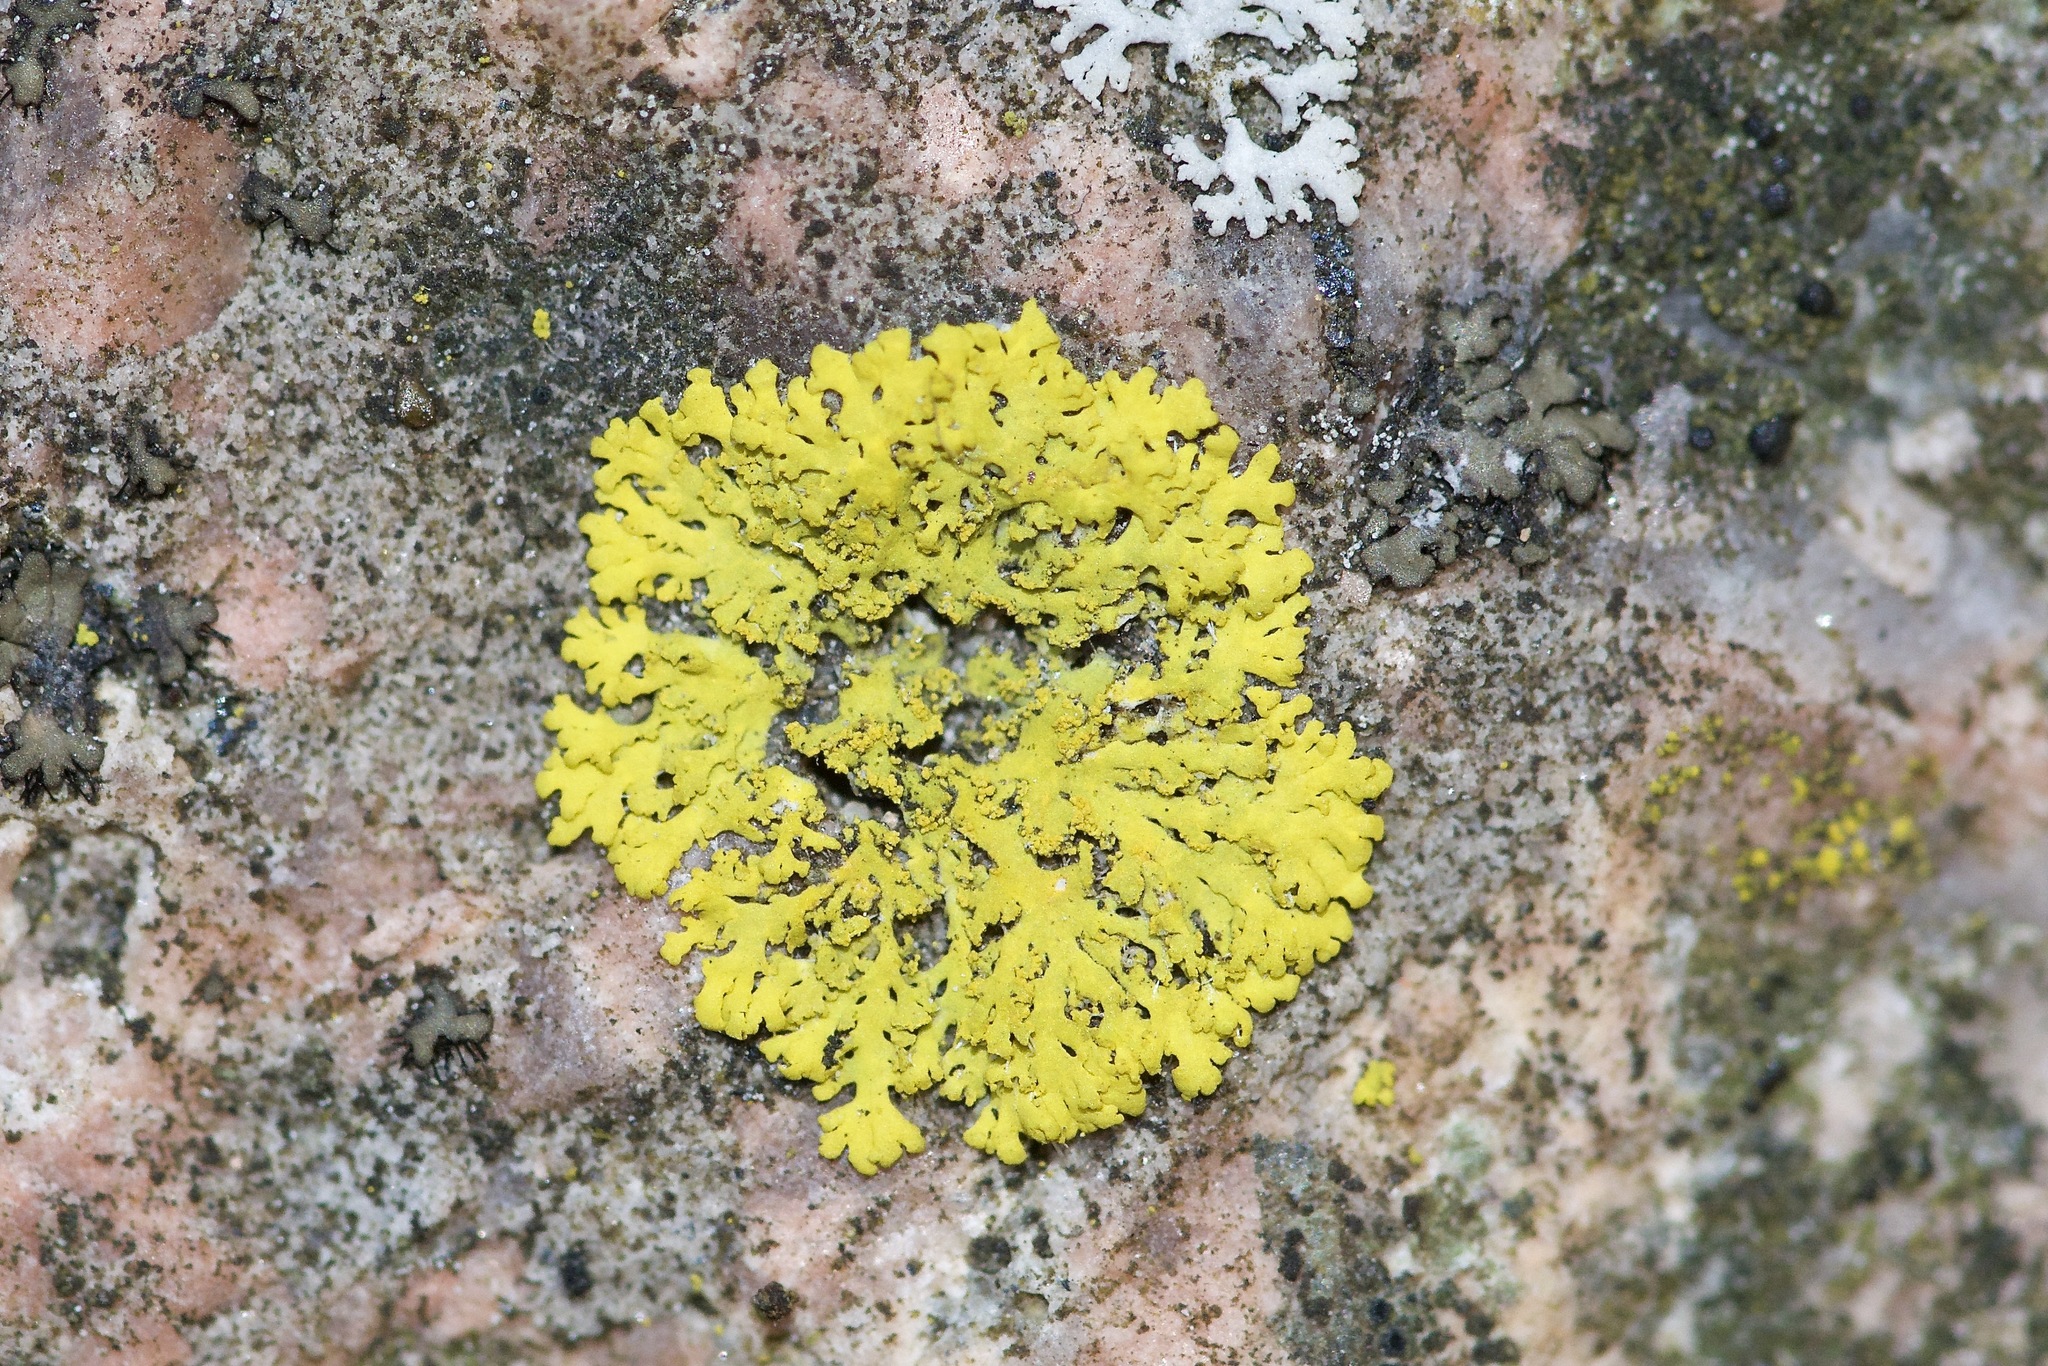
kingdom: Fungi
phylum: Ascomycota
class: Candelariomycetes
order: Candelariales
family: Candelariaceae
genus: Candelaria
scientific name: Candelaria concolor
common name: Candleflame lichen
